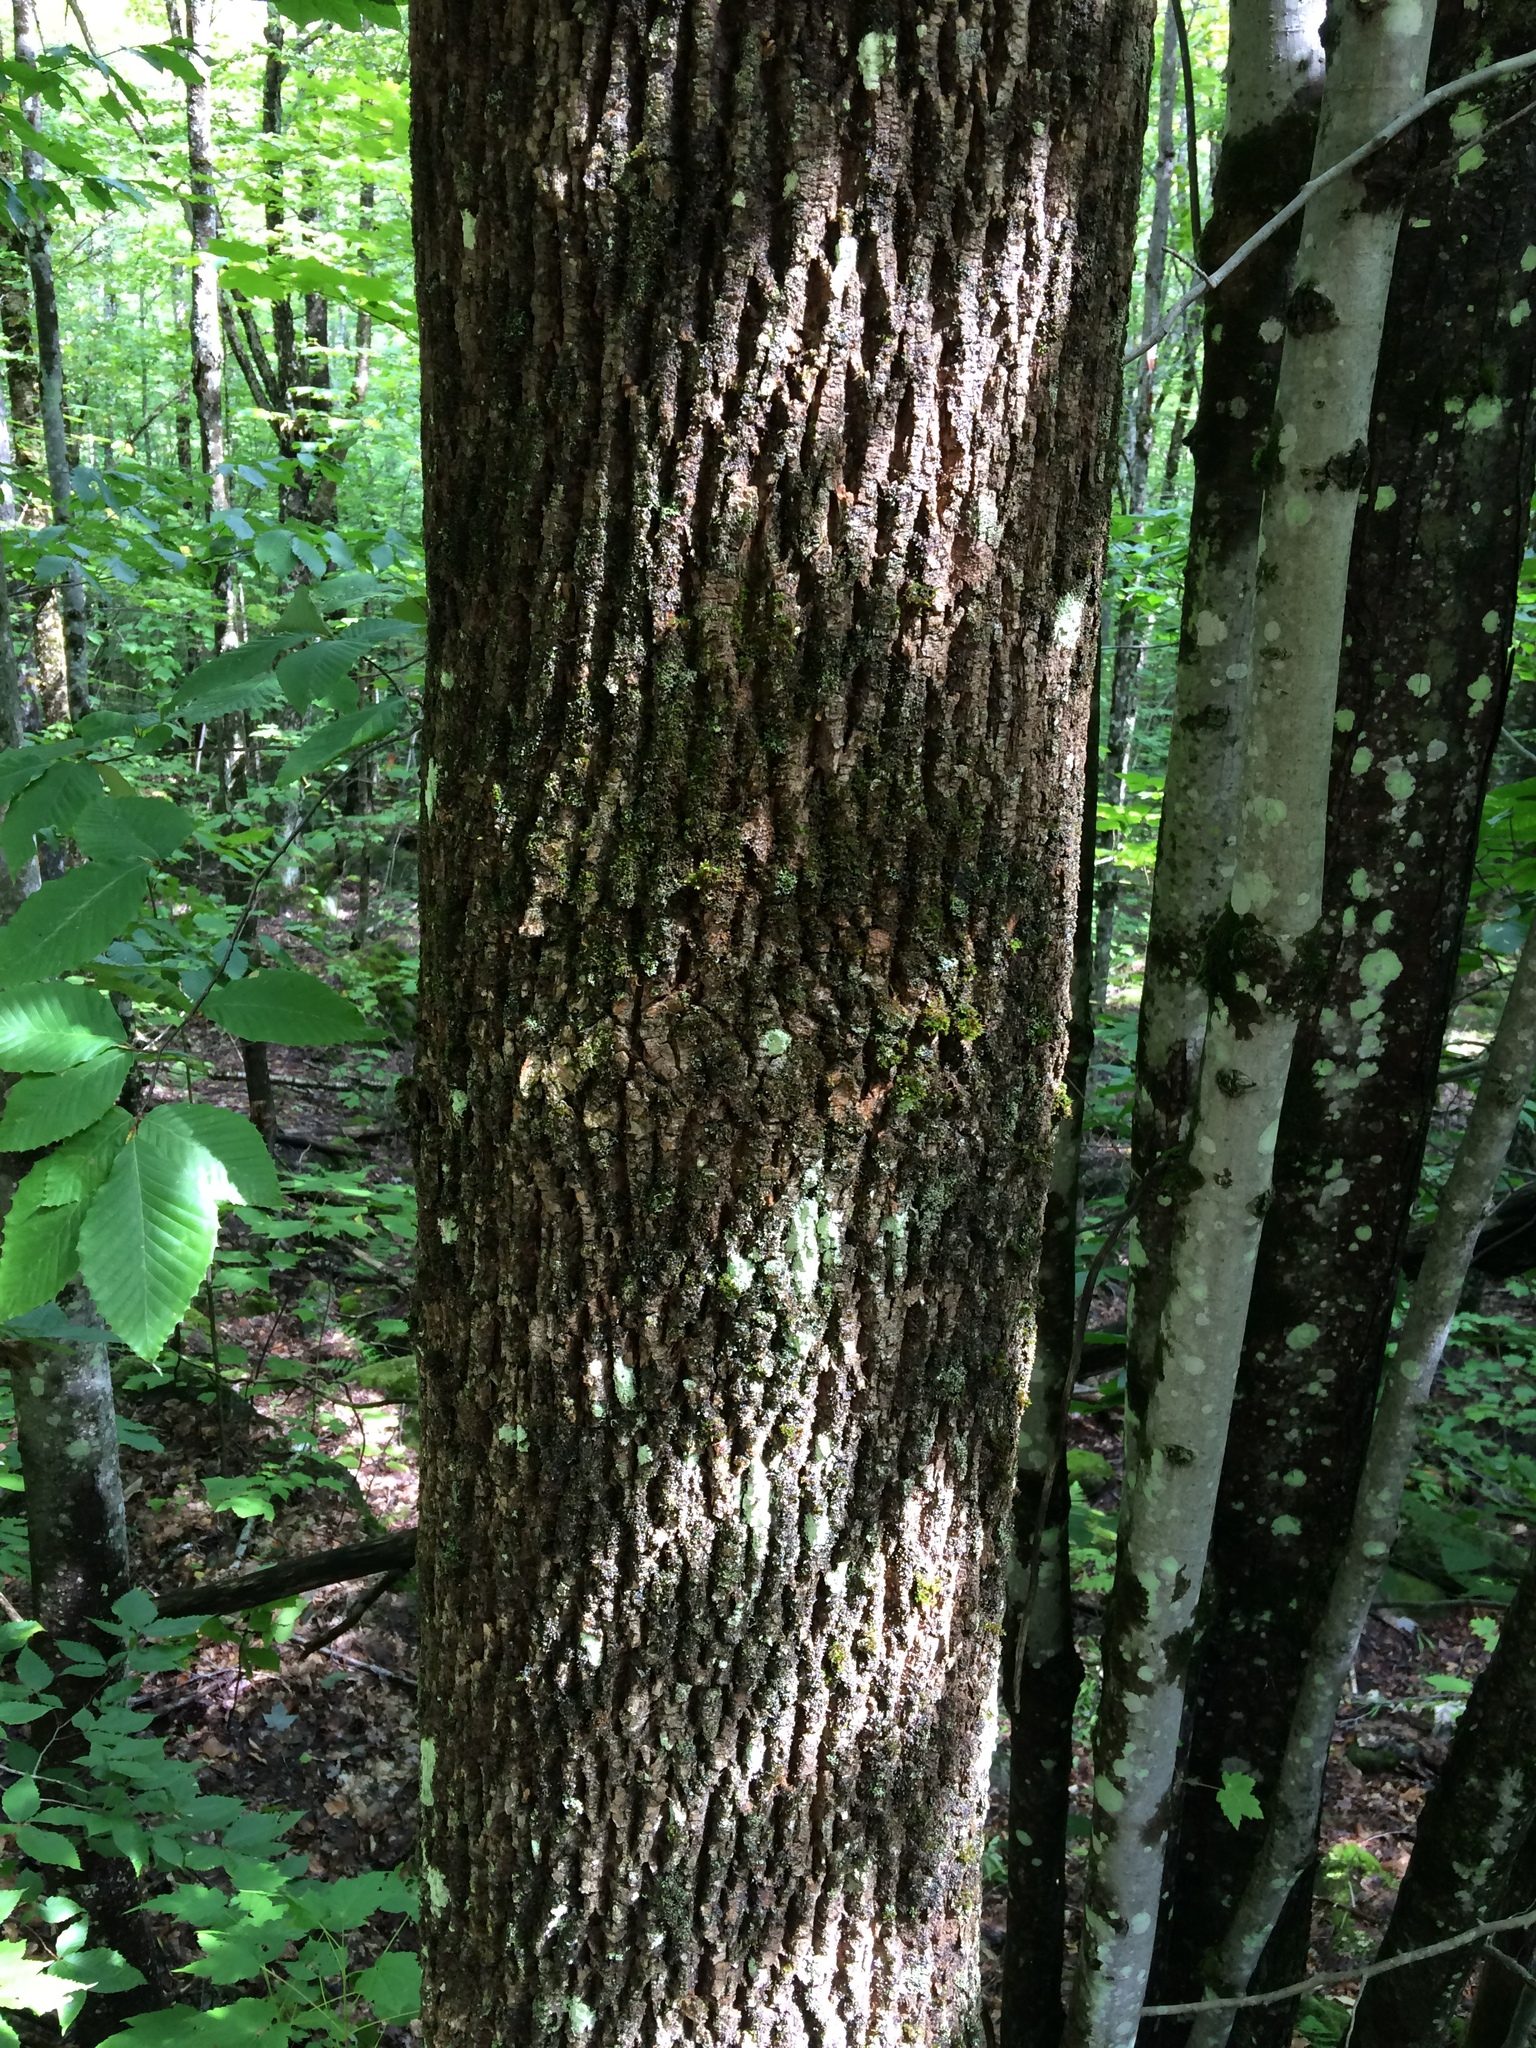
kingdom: Plantae
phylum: Tracheophyta
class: Magnoliopsida
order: Lamiales
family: Oleaceae
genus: Fraxinus
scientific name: Fraxinus americana
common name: White ash
